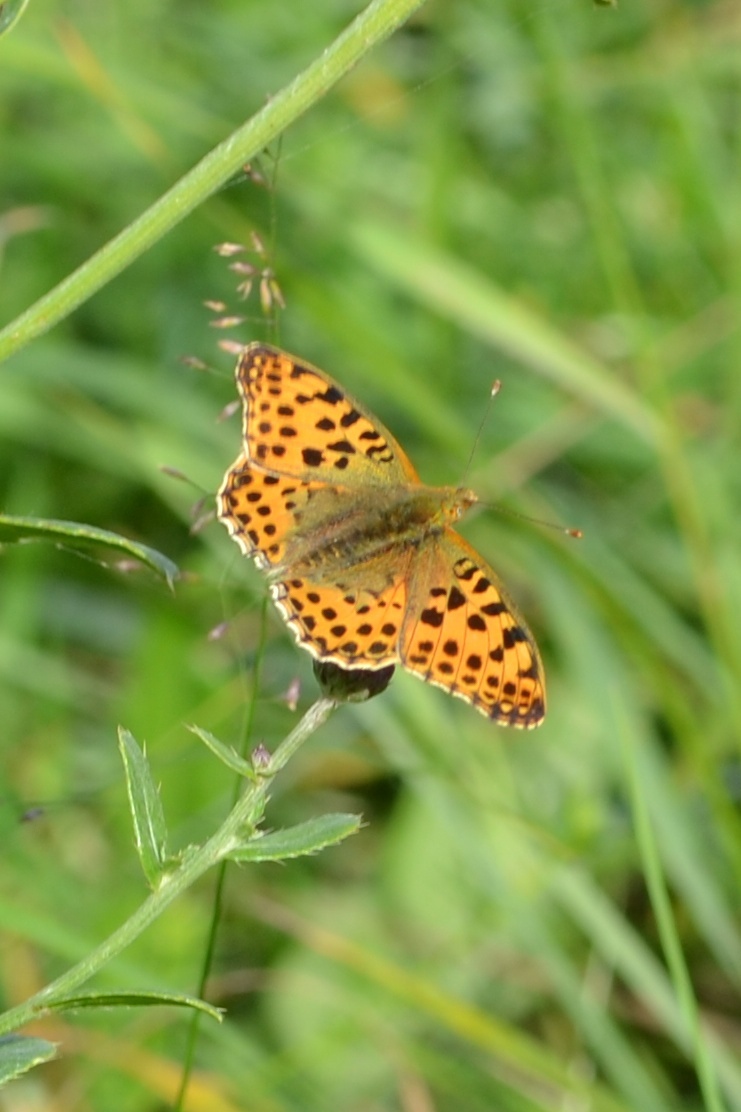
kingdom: Animalia
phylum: Arthropoda
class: Insecta
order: Lepidoptera
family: Nymphalidae
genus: Issoria
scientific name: Issoria lathonia
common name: Queen of spain fritillary
